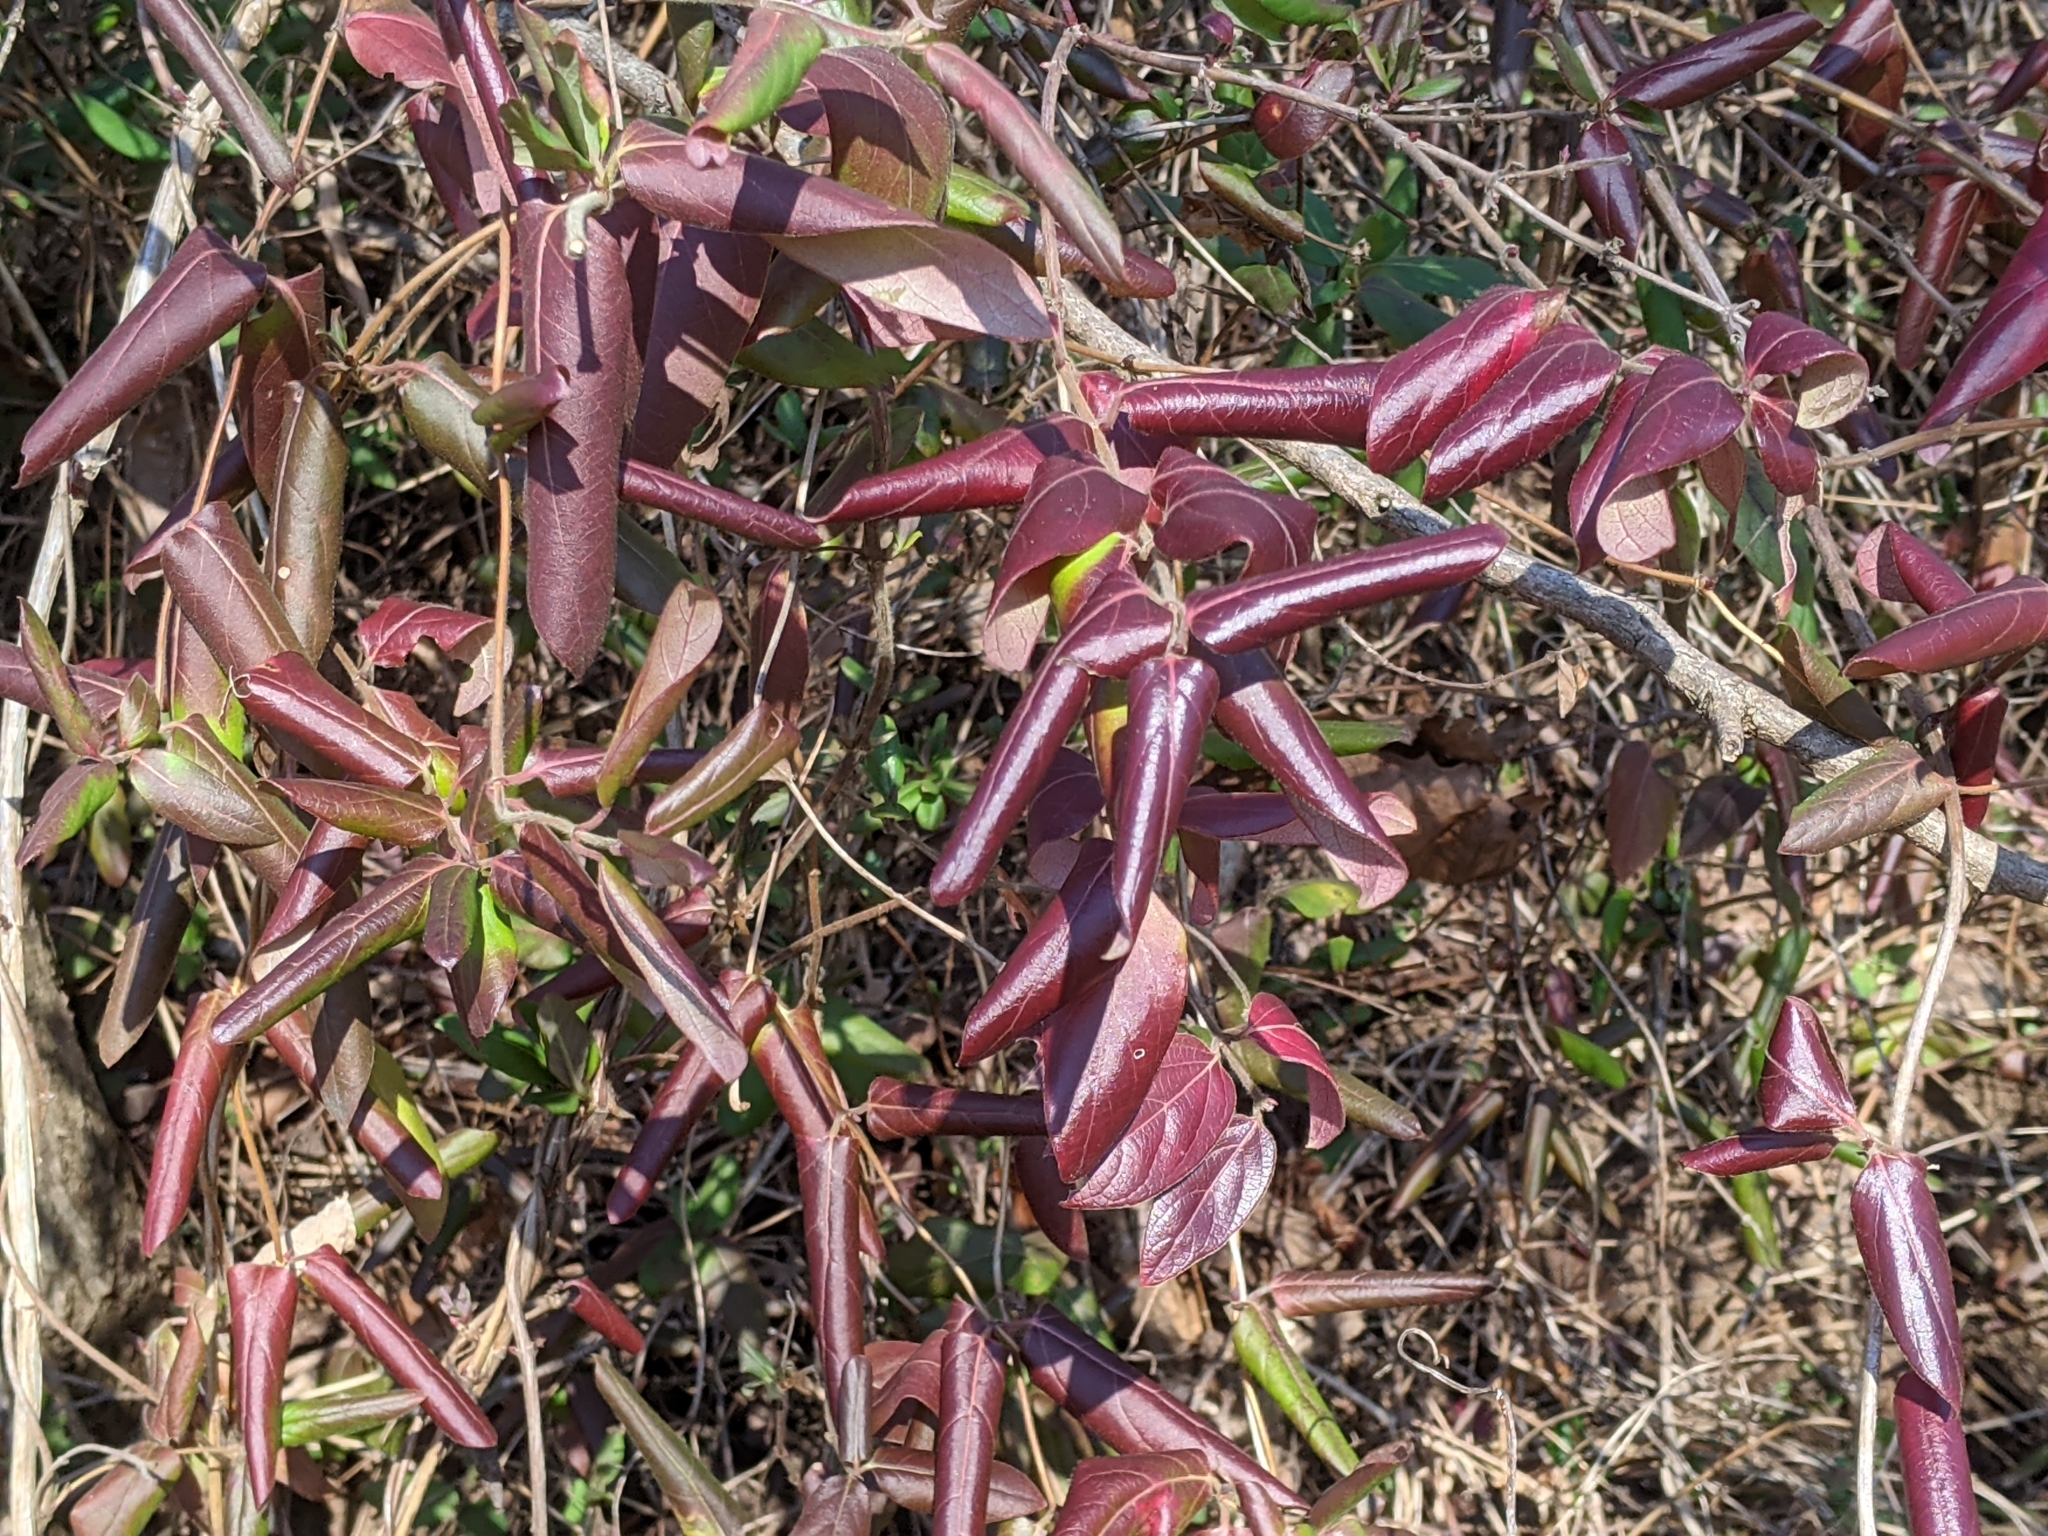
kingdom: Plantae
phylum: Tracheophyta
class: Magnoliopsida
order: Dipsacales
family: Caprifoliaceae
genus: Lonicera
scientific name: Lonicera japonica
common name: Japanese honeysuckle
